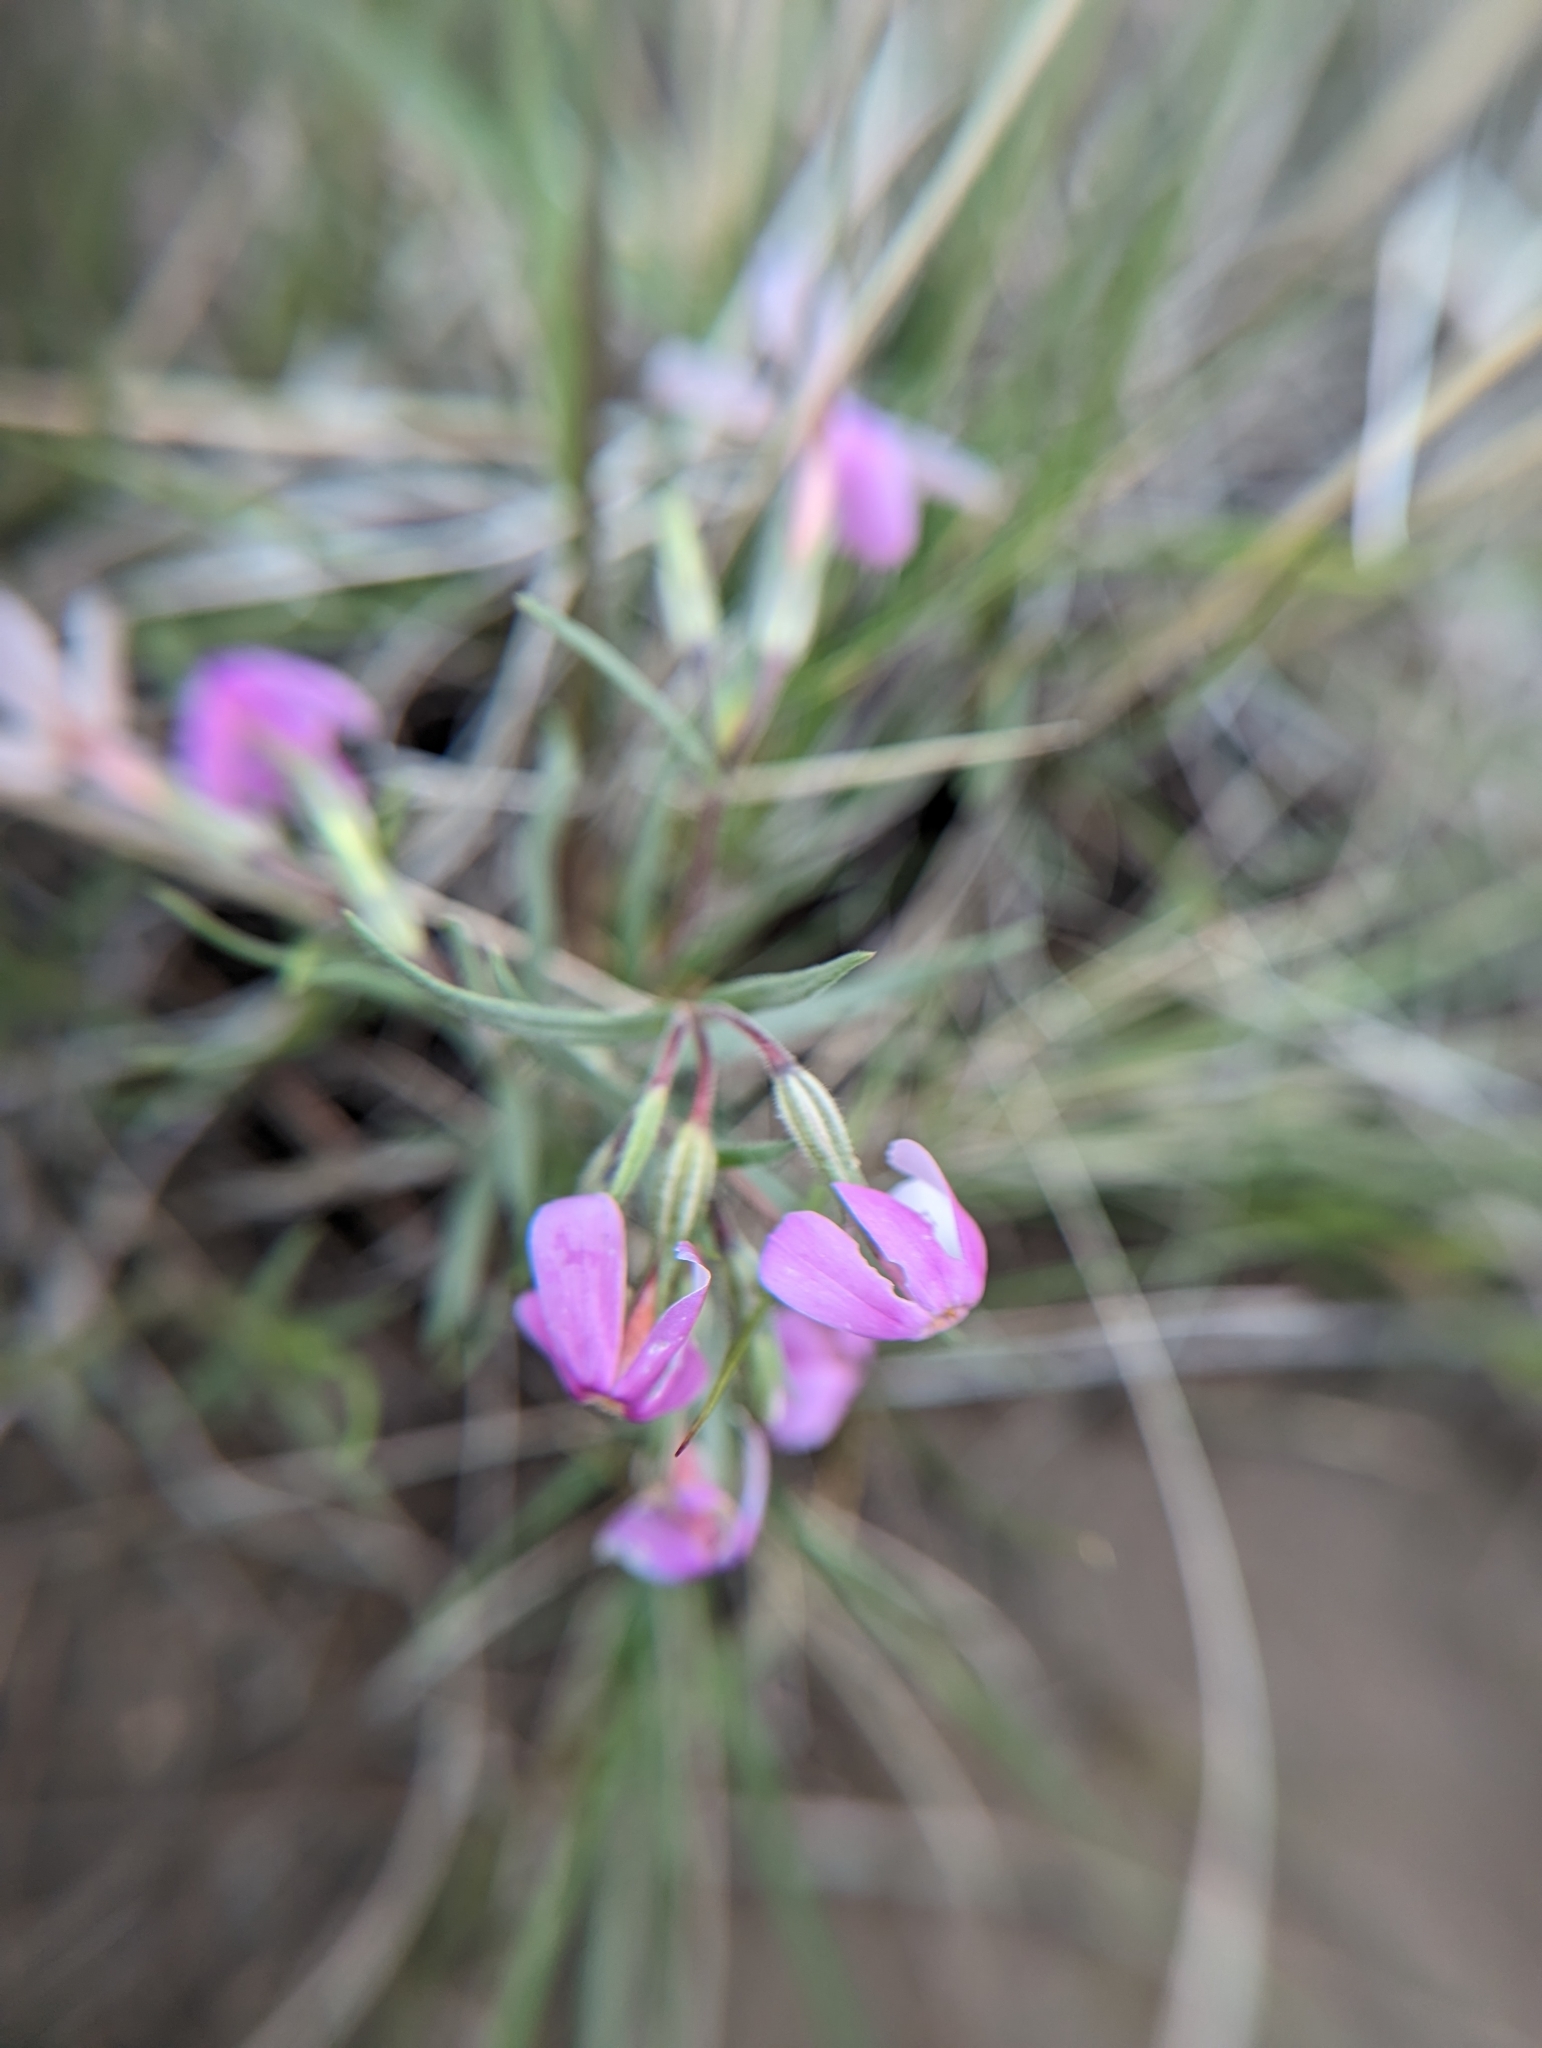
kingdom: Plantae
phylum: Tracheophyta
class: Magnoliopsida
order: Ericales
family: Polemoniaceae
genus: Phlox
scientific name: Phlox longifolia
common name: Longleaf phlox
